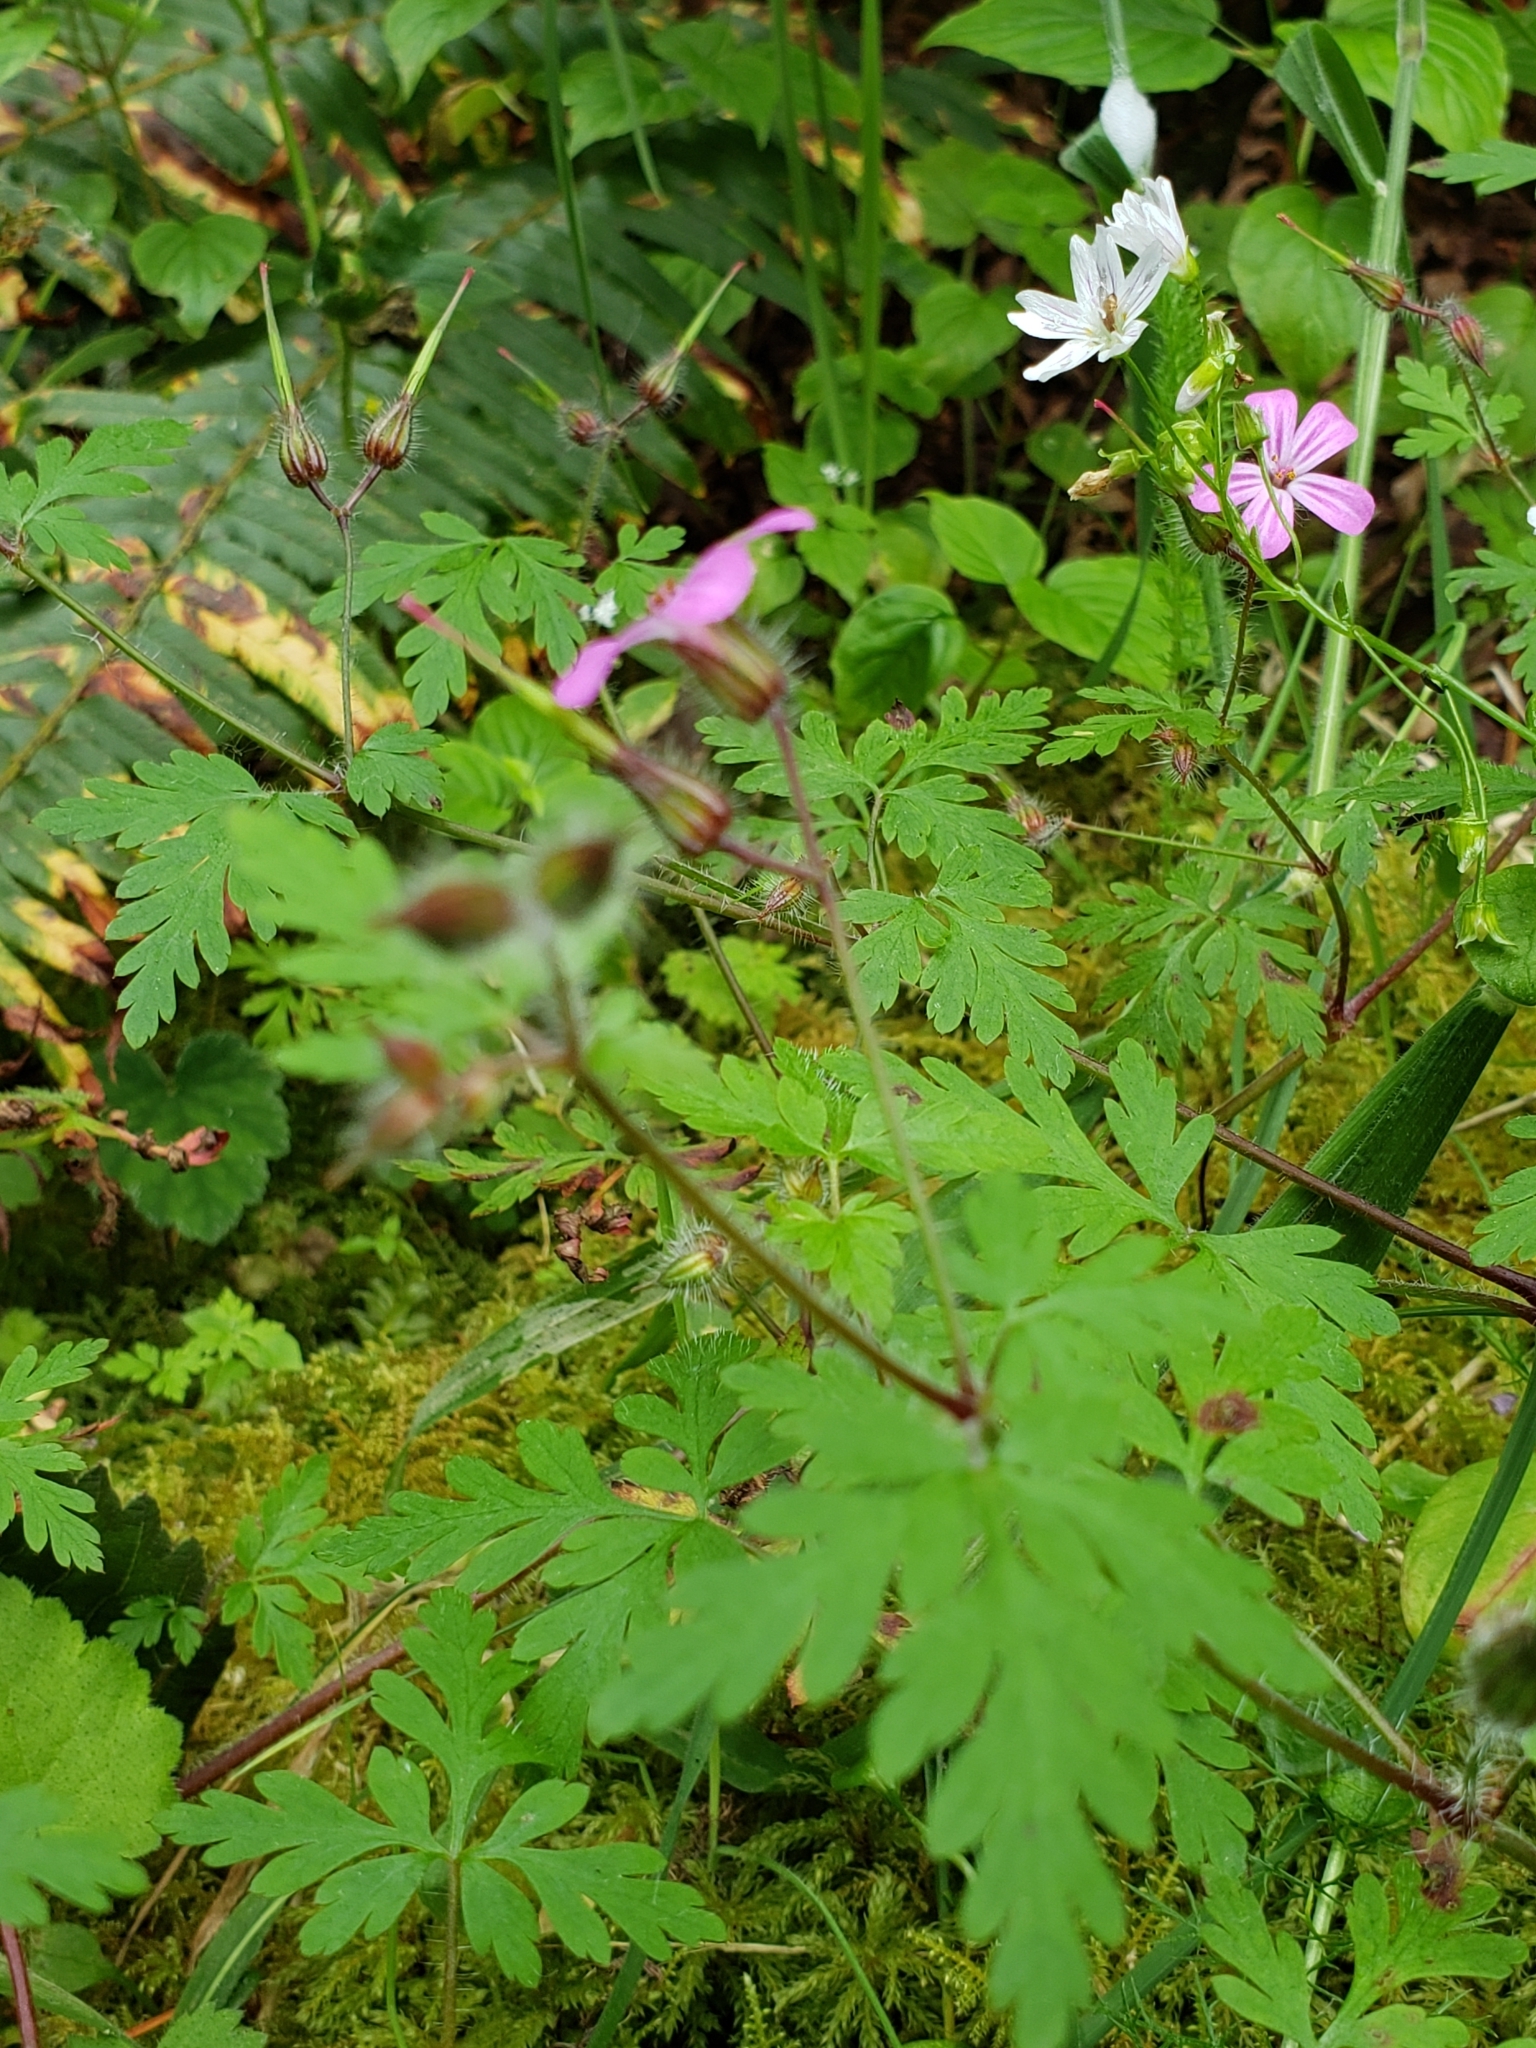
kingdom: Plantae
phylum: Tracheophyta
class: Magnoliopsida
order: Geraniales
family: Geraniaceae
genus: Geranium
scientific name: Geranium robertianum
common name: Herb-robert
